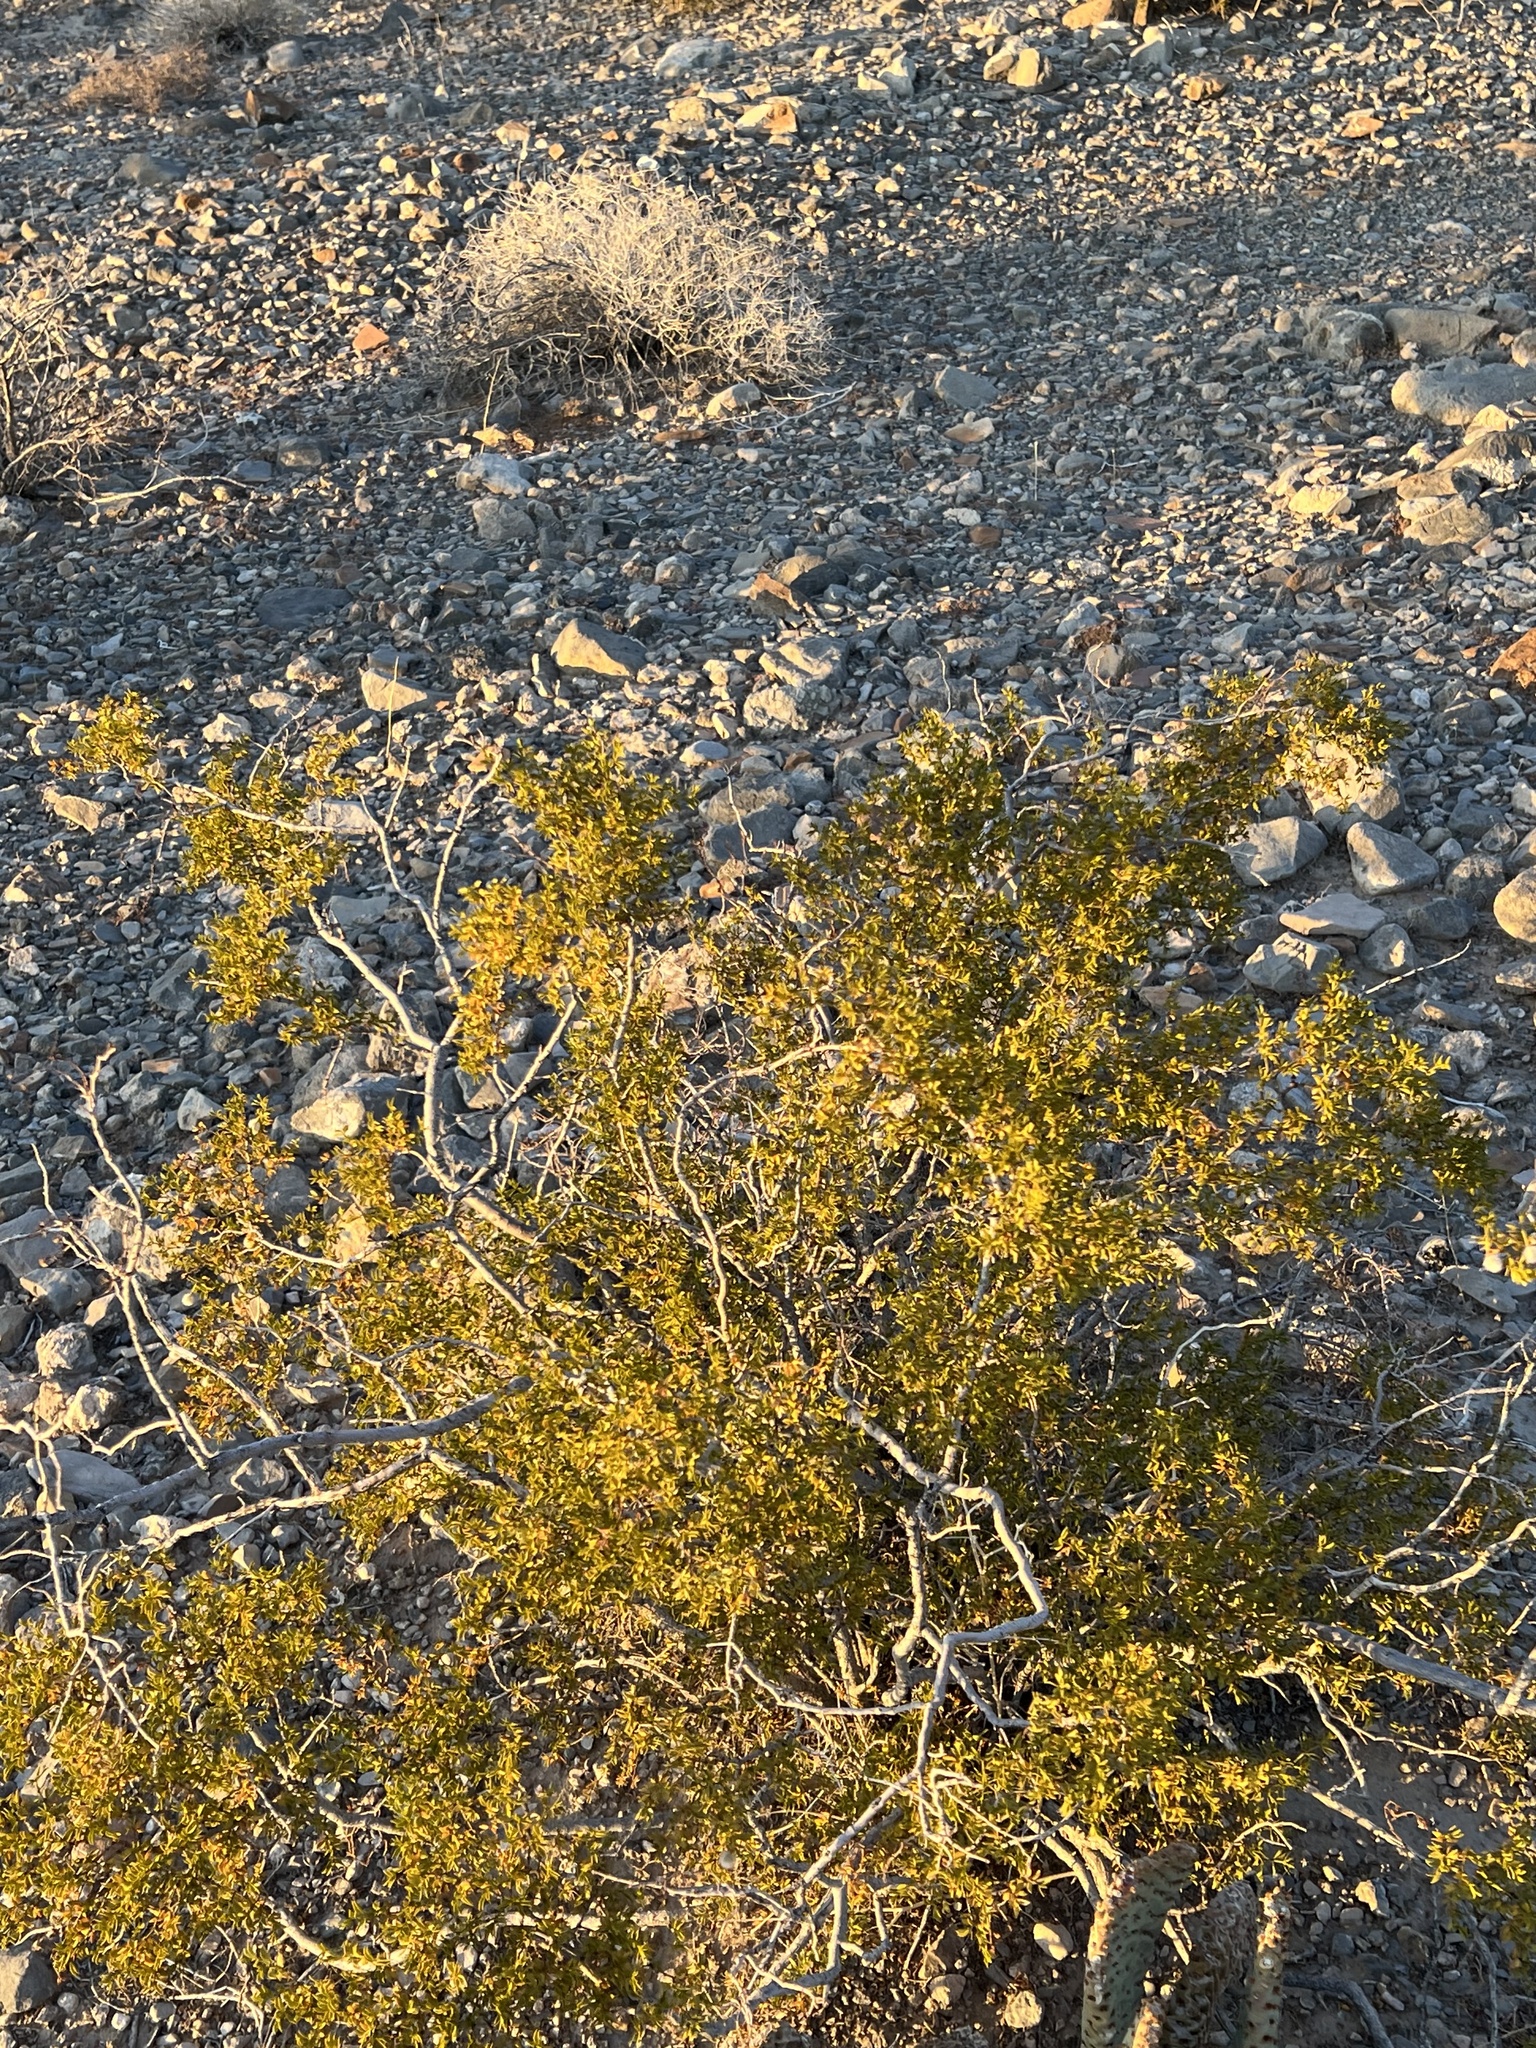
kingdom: Plantae
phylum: Tracheophyta
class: Magnoliopsida
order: Zygophyllales
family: Zygophyllaceae
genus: Larrea
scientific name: Larrea tridentata
